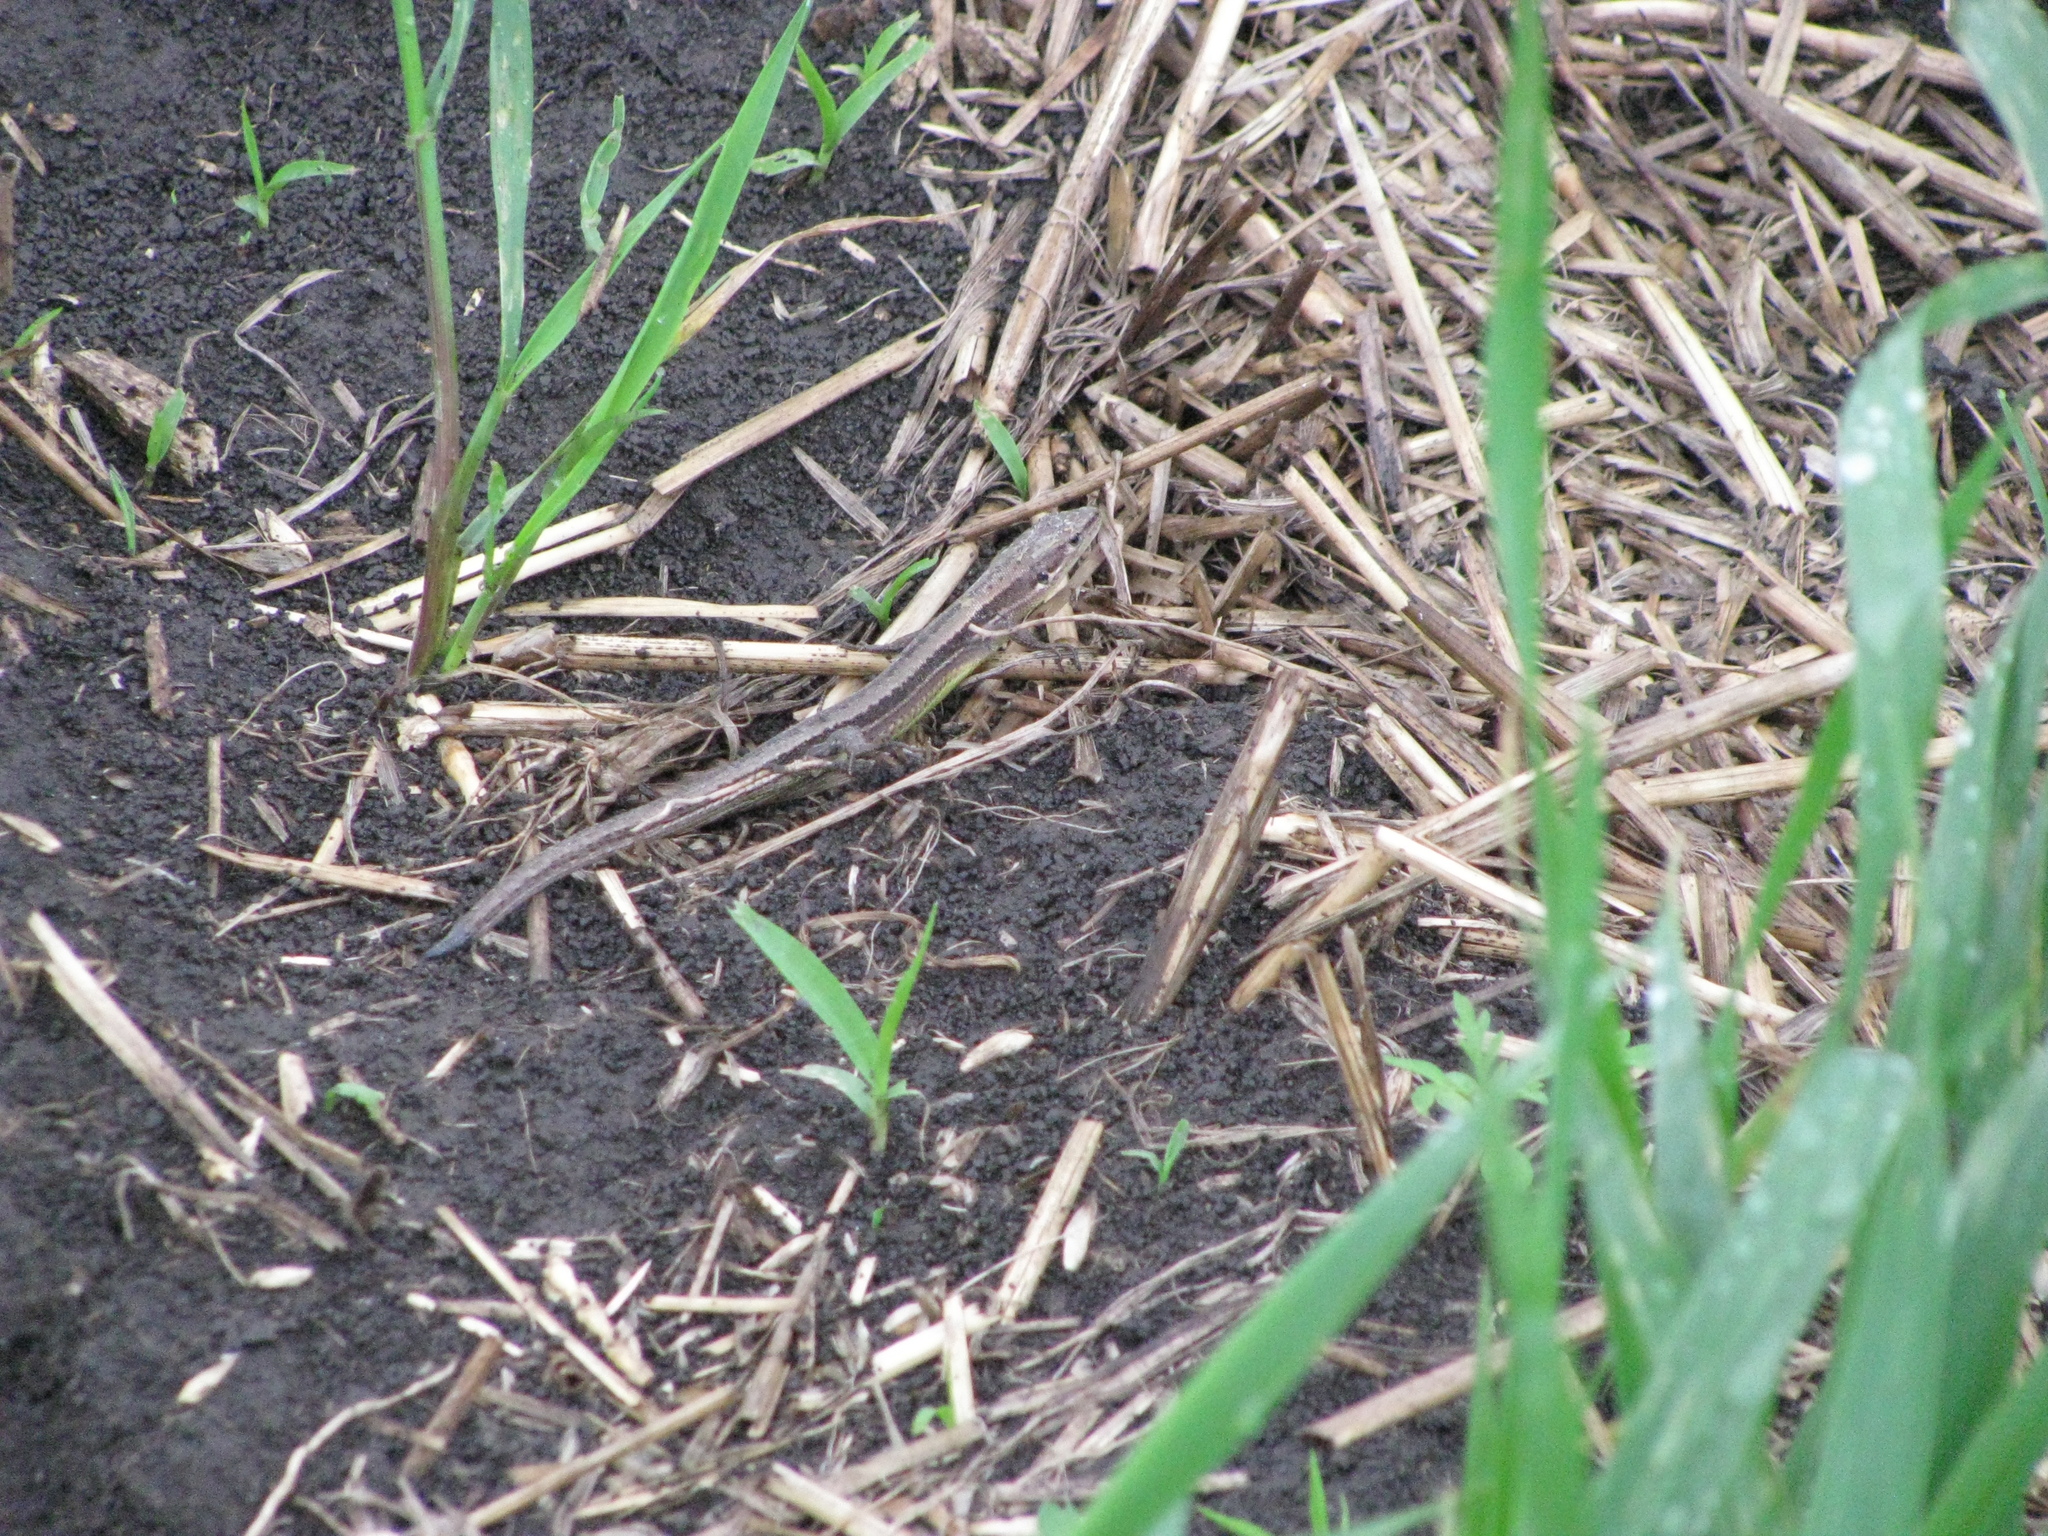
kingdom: Animalia
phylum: Chordata
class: Squamata
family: Lacertidae
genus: Darevskia
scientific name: Darevskia praticola
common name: Meadow lizard
